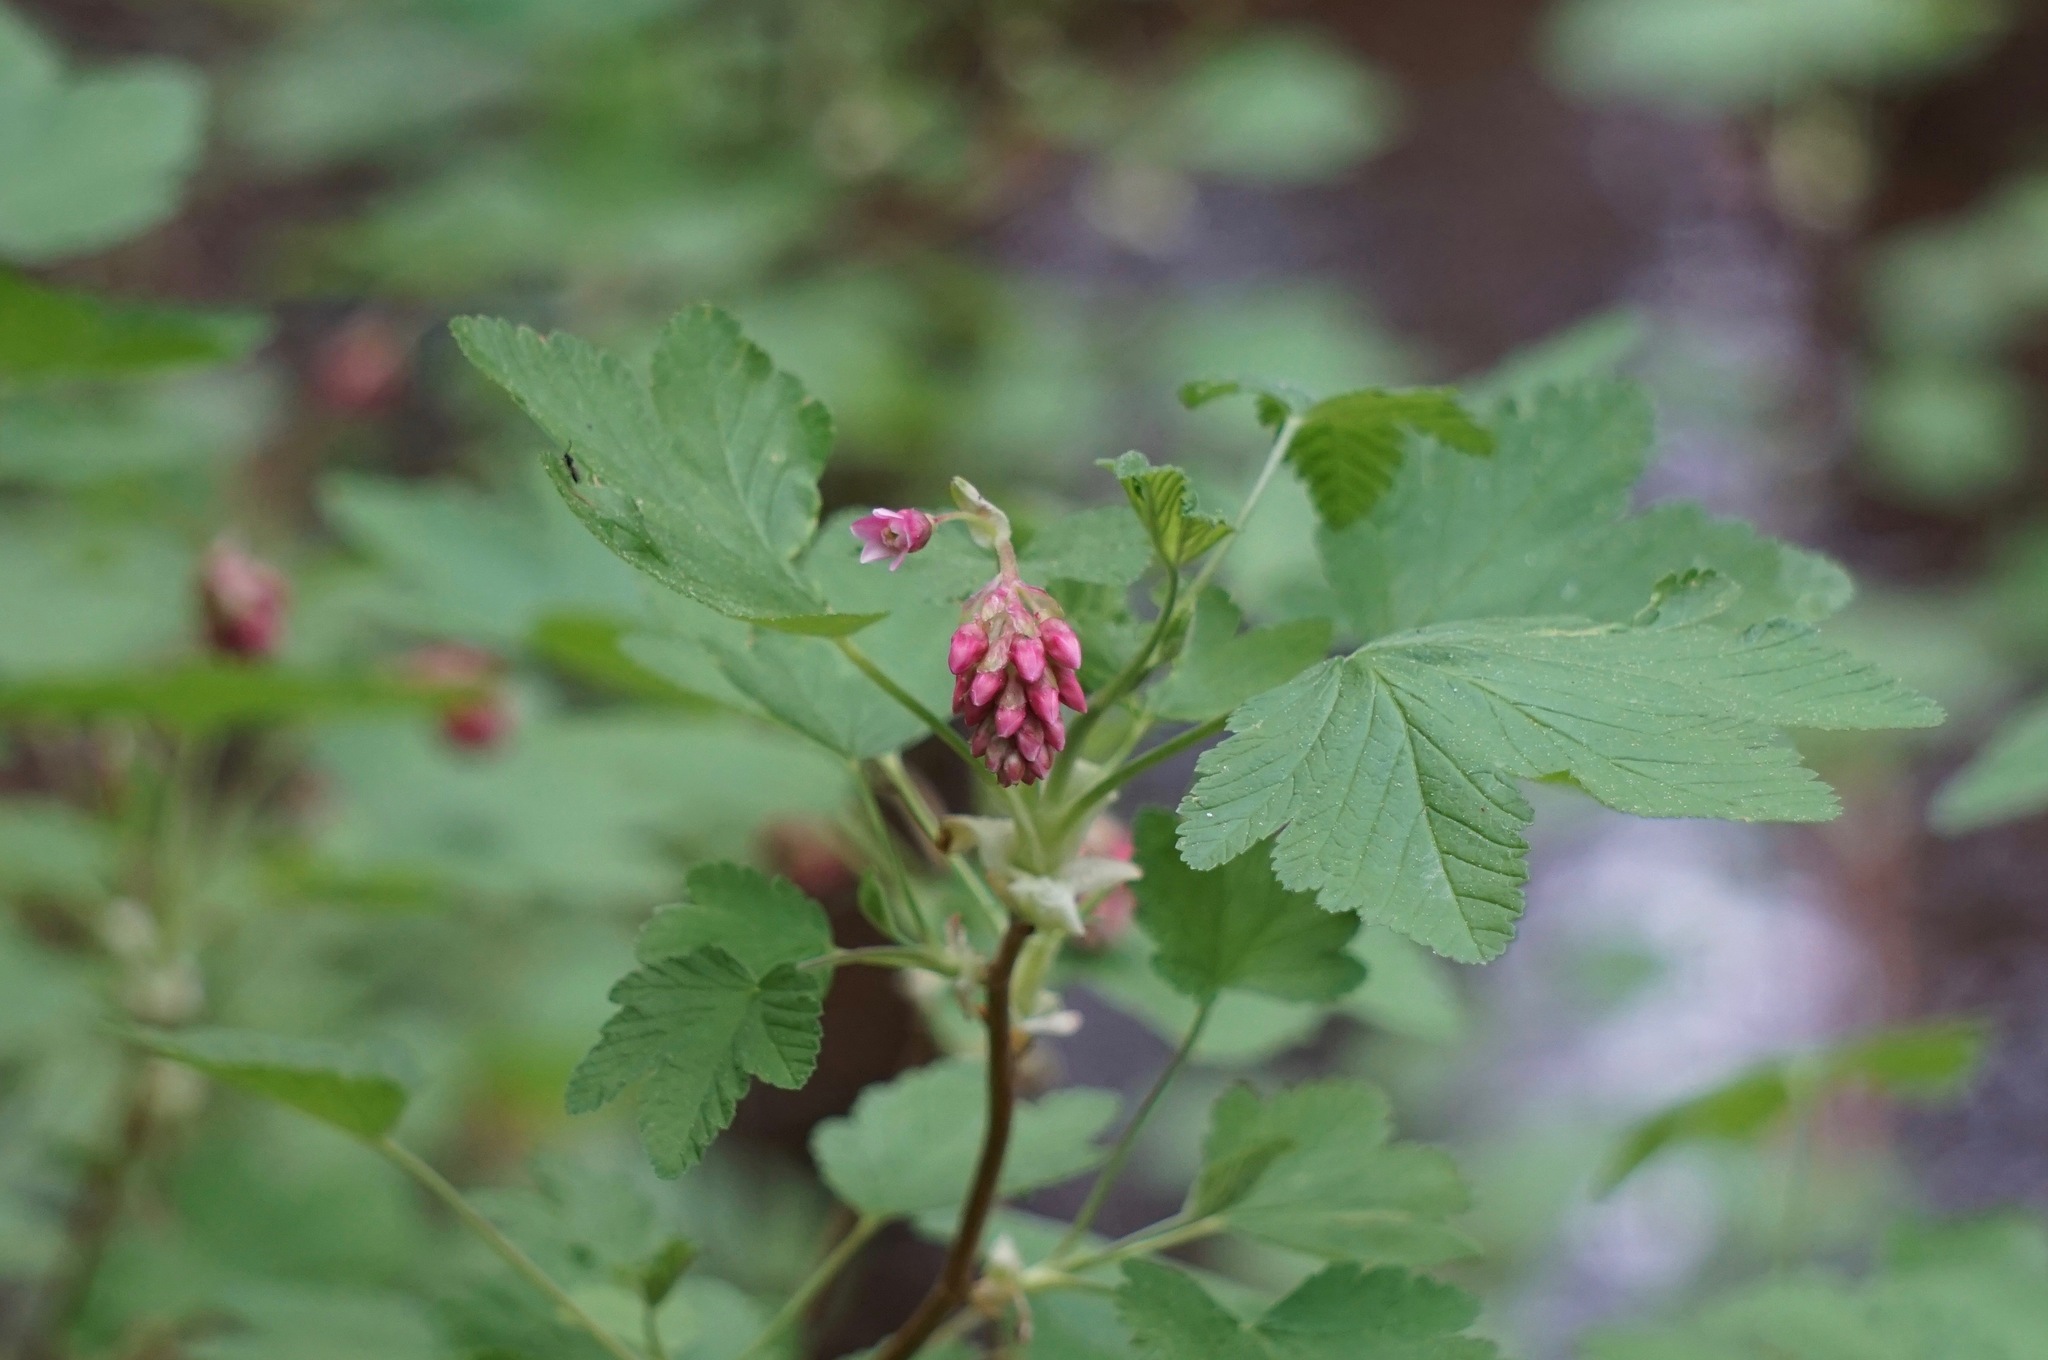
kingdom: Plantae
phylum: Tracheophyta
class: Magnoliopsida
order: Saxifragales
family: Grossulariaceae
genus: Ribes
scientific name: Ribes nevadense
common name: Mountain pink currant
